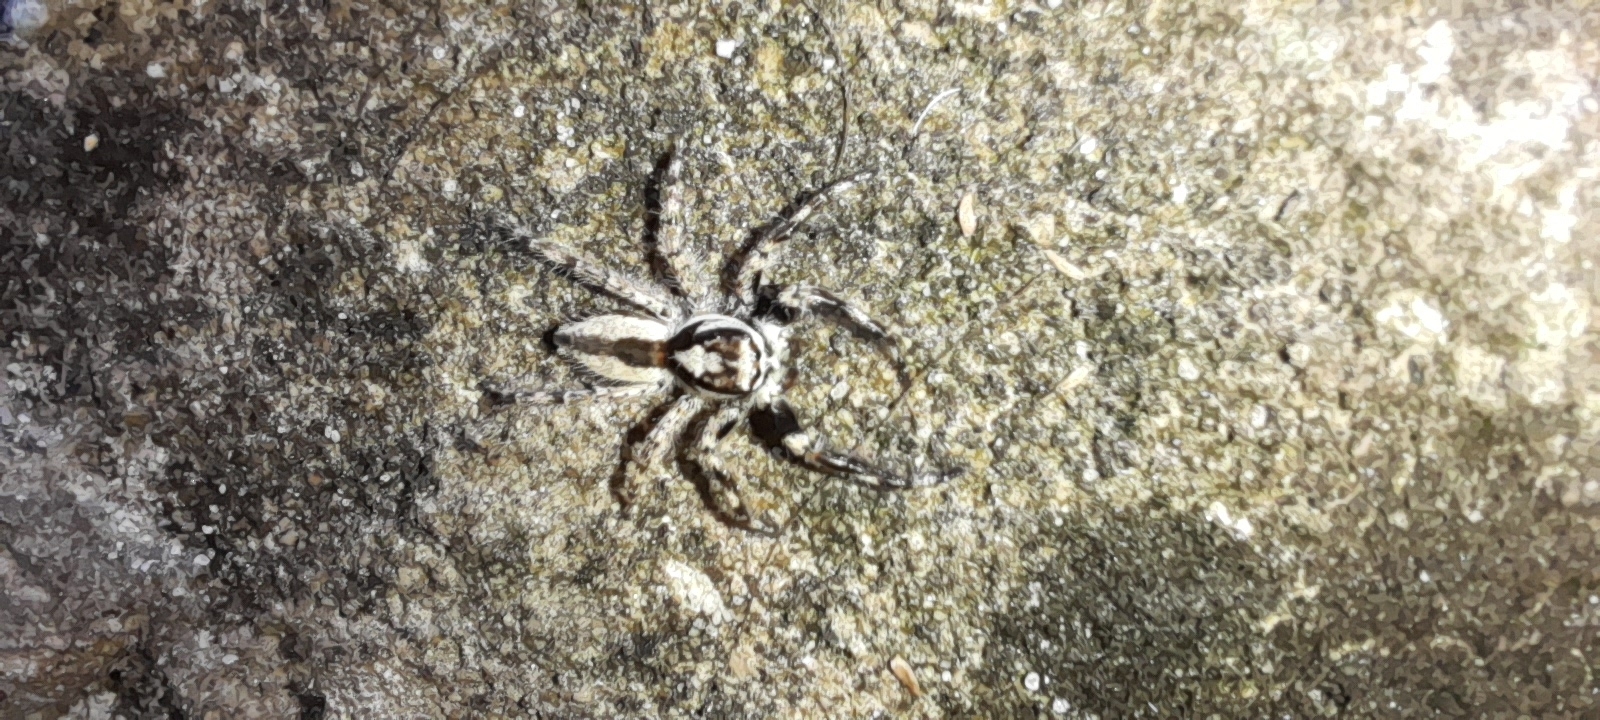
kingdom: Animalia
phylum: Arthropoda
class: Arachnida
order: Araneae
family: Salticidae
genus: Menemerus
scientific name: Menemerus bivittatus
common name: Gray wall jumper
